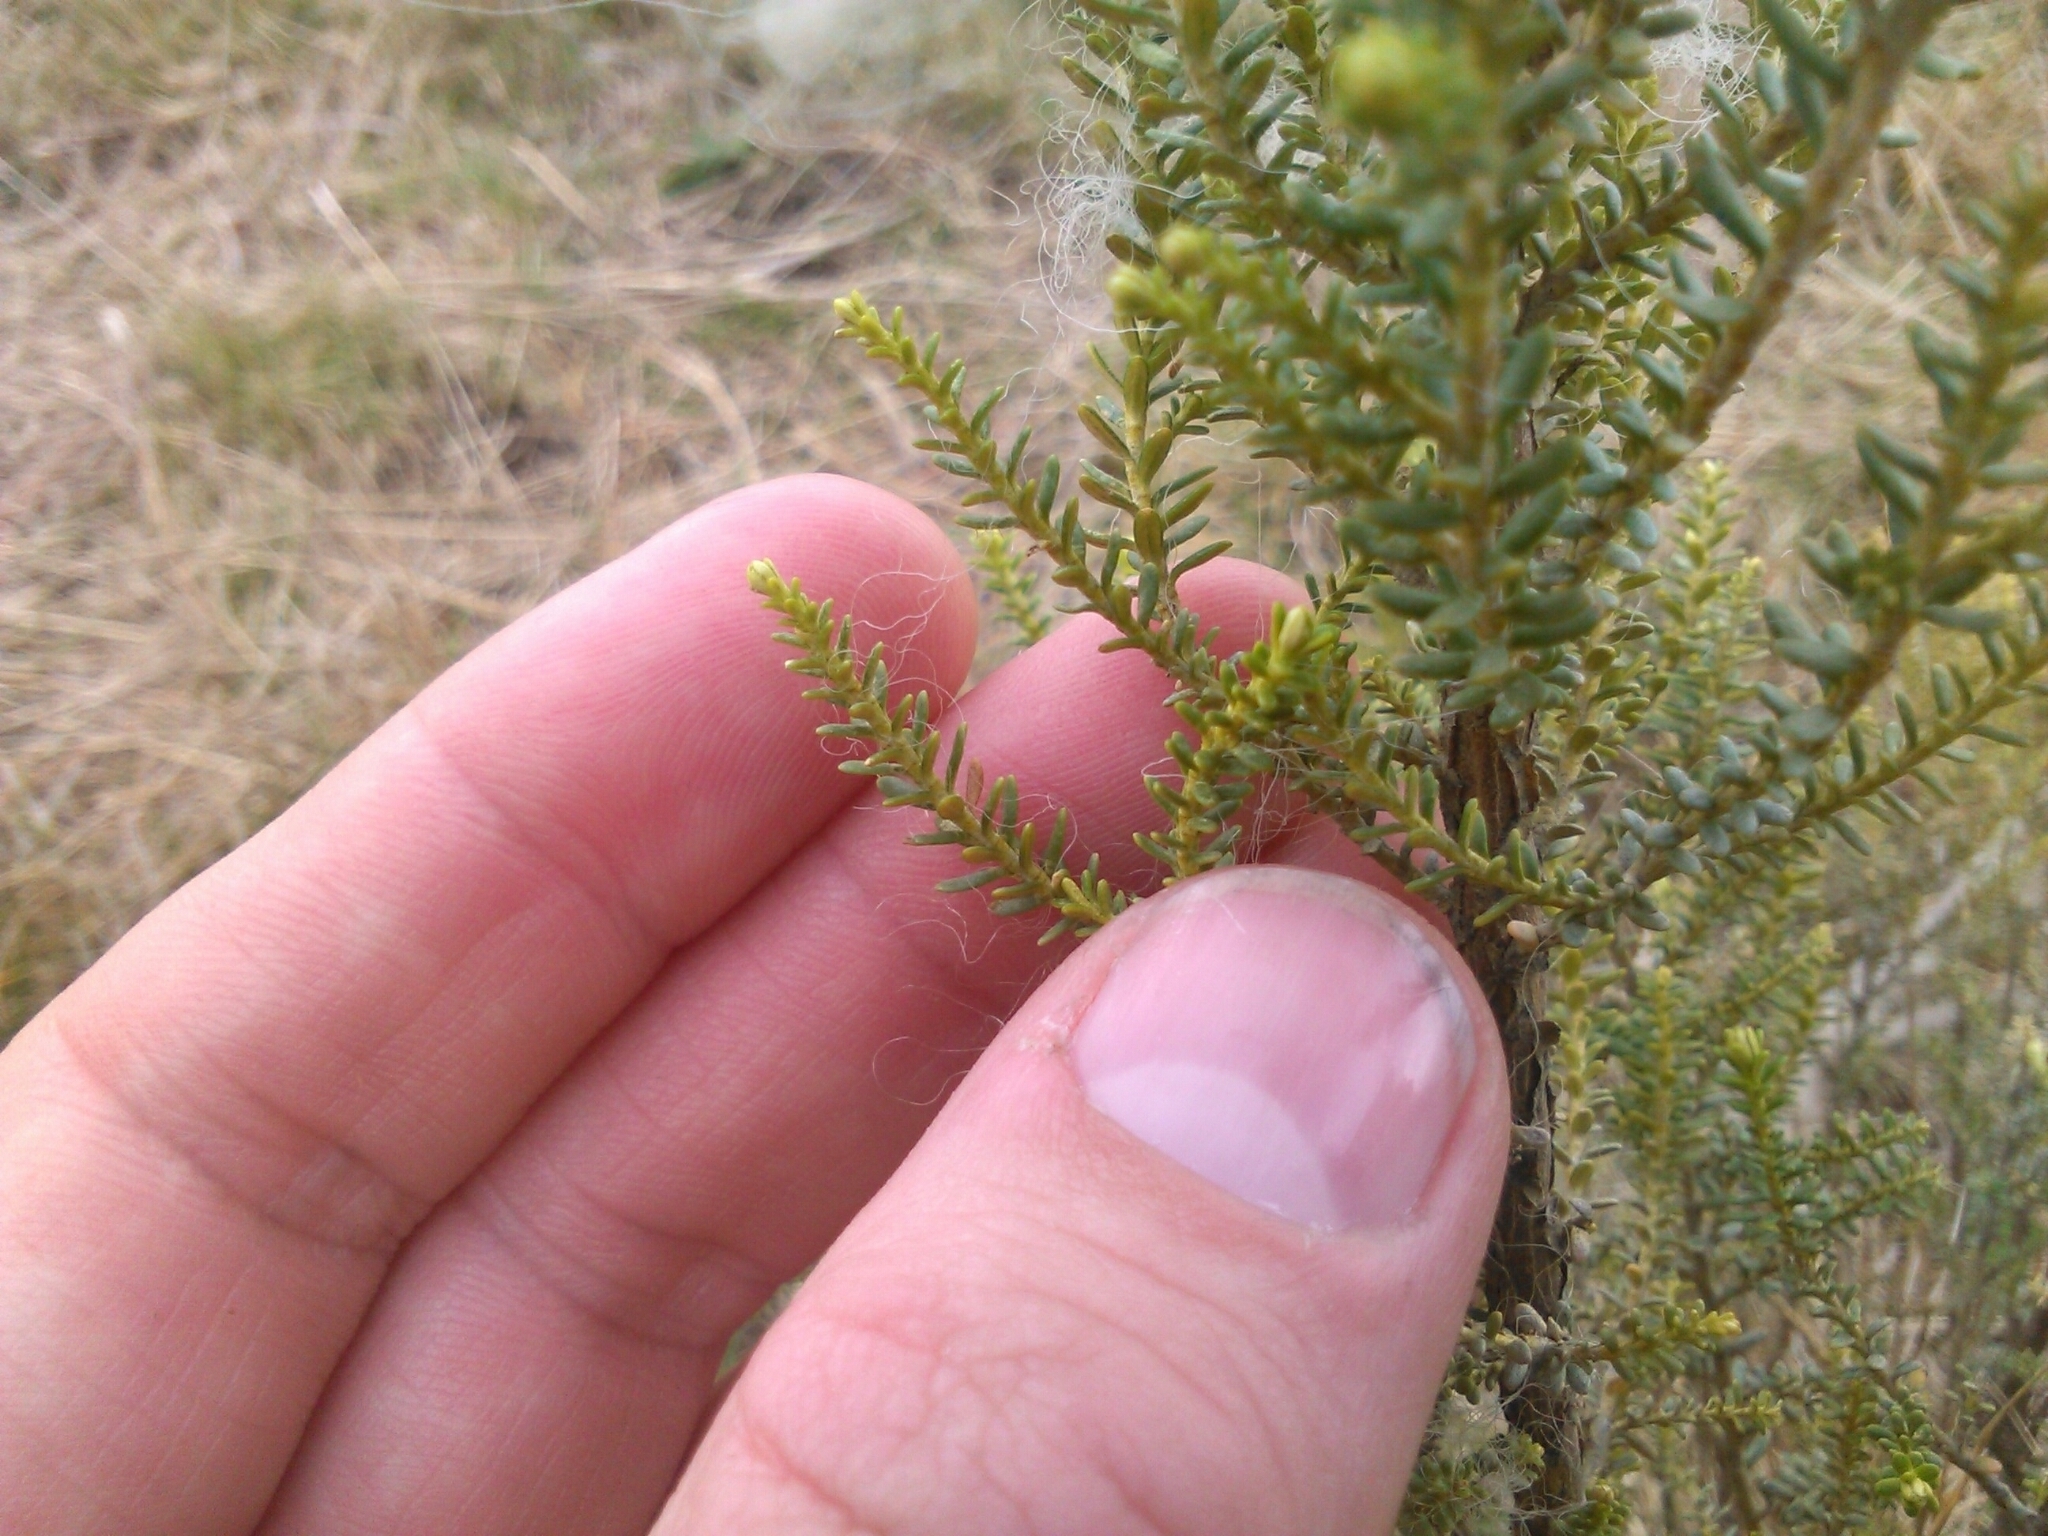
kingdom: Plantae
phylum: Tracheophyta
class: Magnoliopsida
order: Asterales
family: Asteraceae
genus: Ozothamnus
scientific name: Ozothamnus leptophyllus
